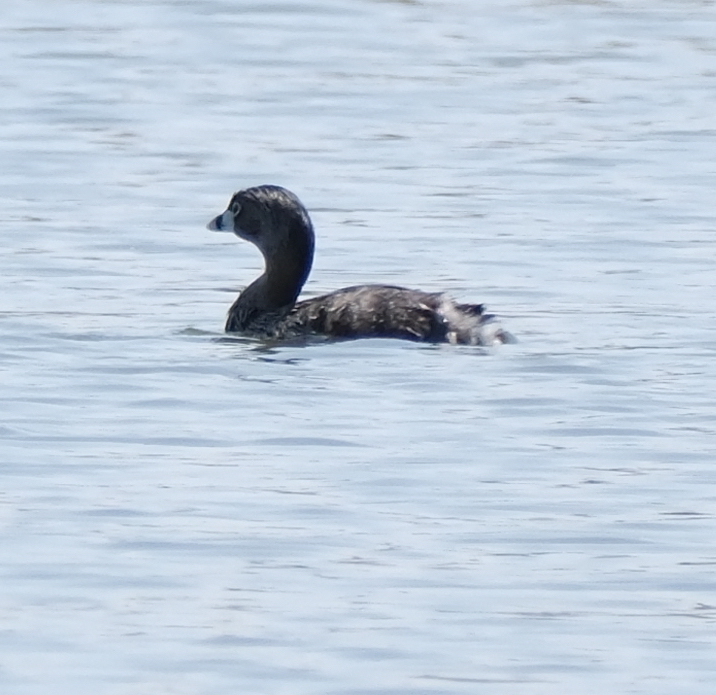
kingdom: Animalia
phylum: Chordata
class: Aves
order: Podicipediformes
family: Podicipedidae
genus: Podilymbus
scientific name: Podilymbus podiceps
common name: Pied-billed grebe
